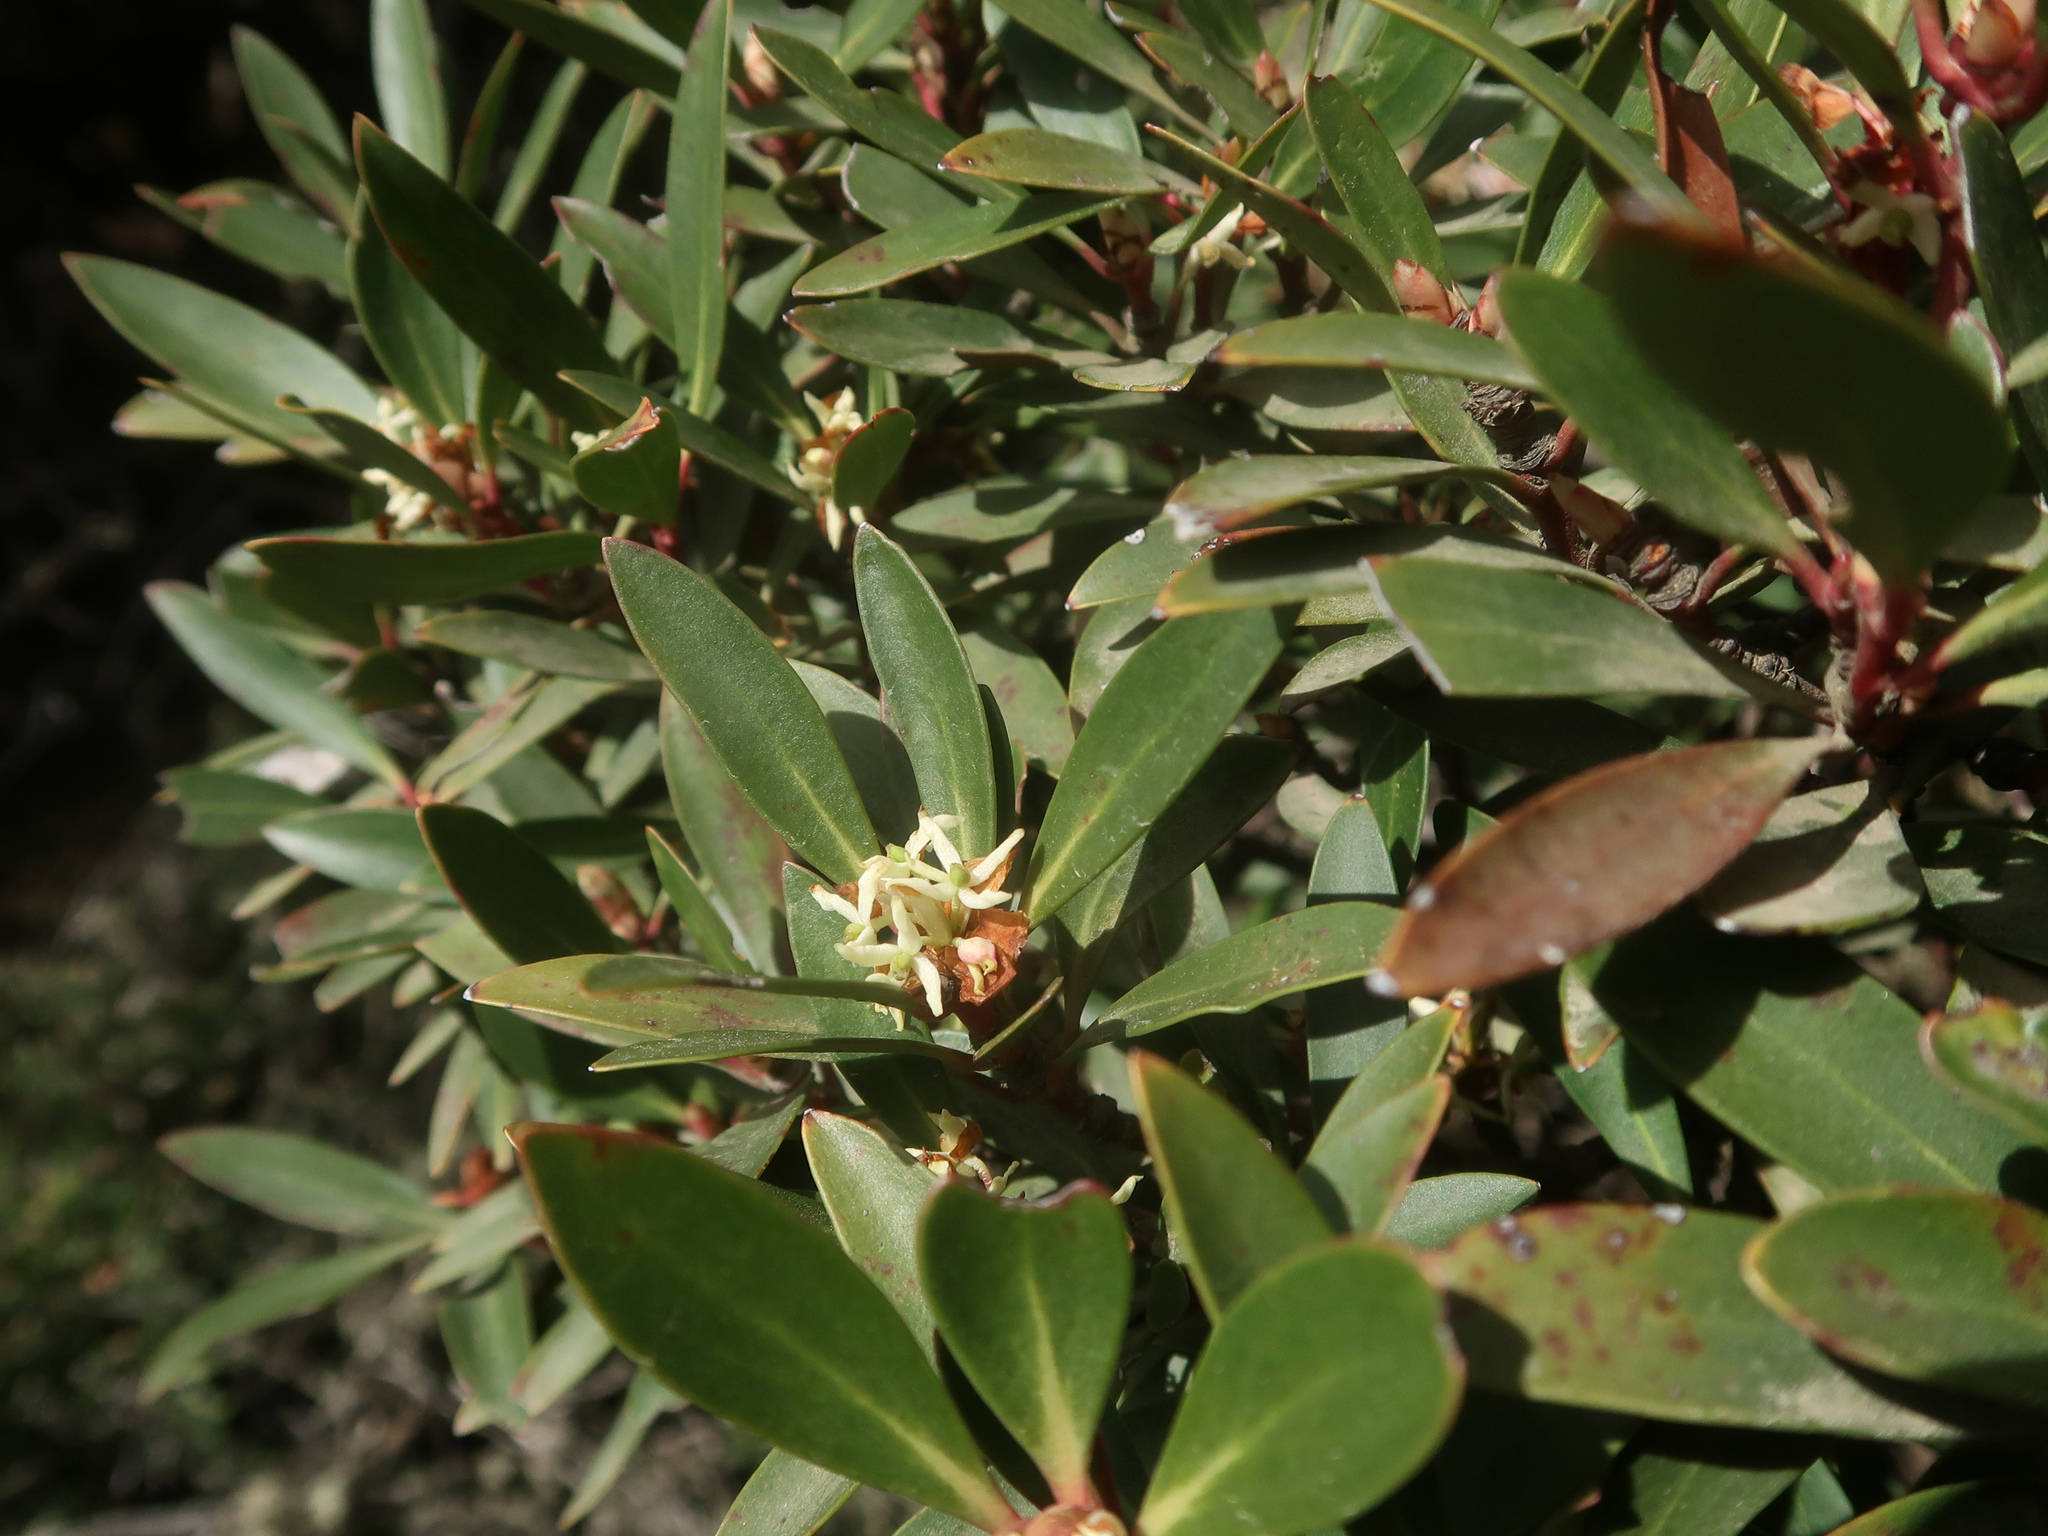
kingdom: Plantae
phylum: Tracheophyta
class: Magnoliopsida
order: Canellales
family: Winteraceae
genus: Drimys
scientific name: Drimys aromatica
